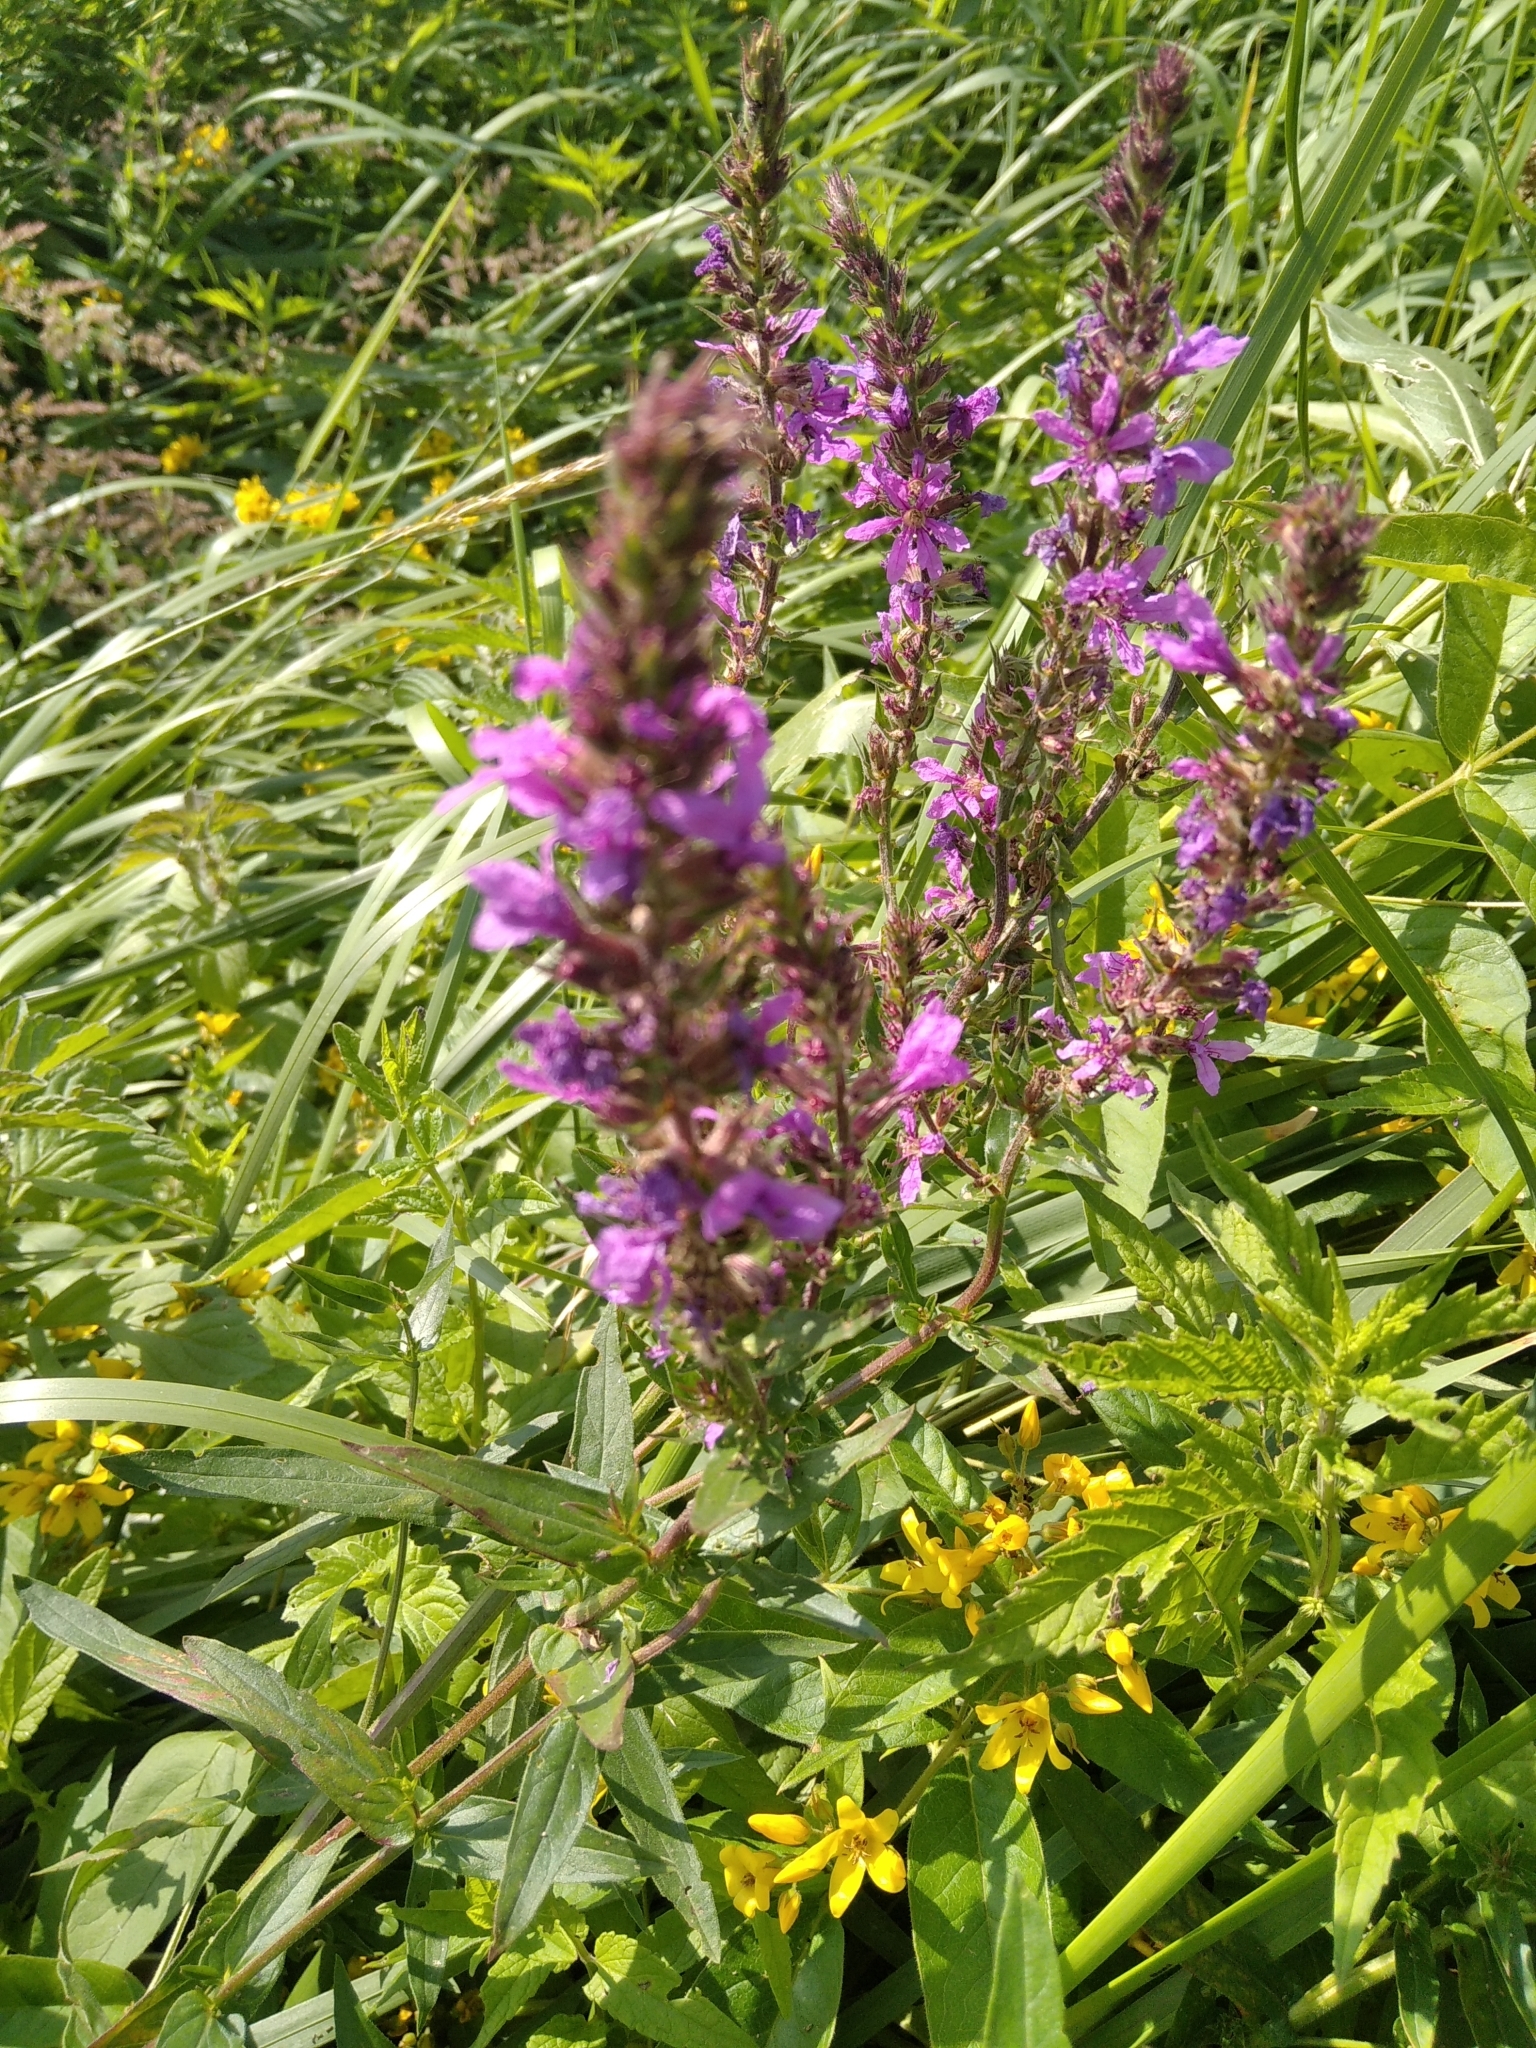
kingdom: Plantae
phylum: Tracheophyta
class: Magnoliopsida
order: Myrtales
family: Lythraceae
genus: Lythrum
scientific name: Lythrum salicaria
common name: Purple loosestrife
